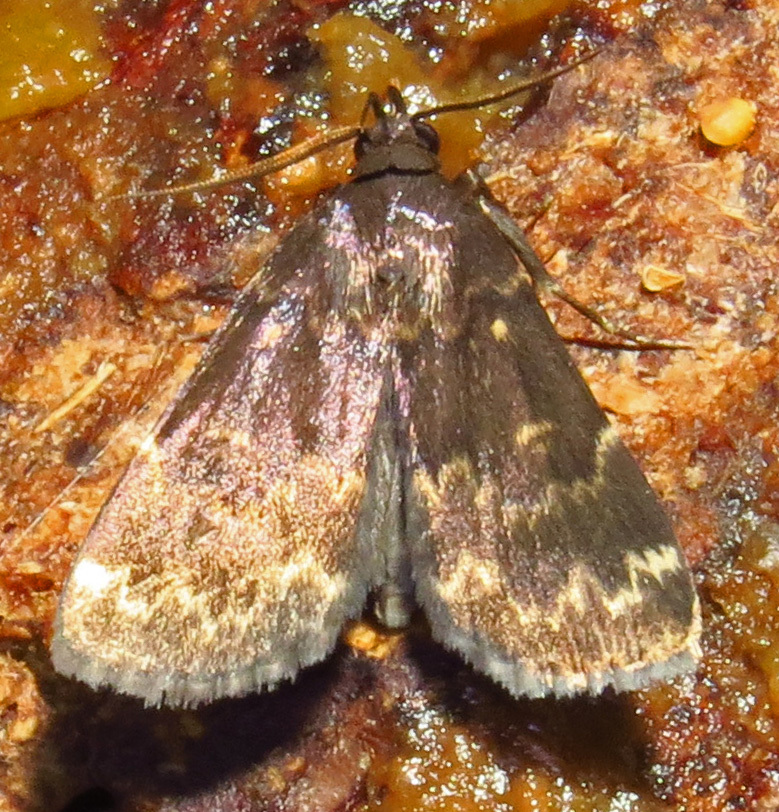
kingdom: Animalia
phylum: Arthropoda
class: Insecta
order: Lepidoptera
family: Erebidae
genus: Idia
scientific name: Idia lubricalis
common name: Twin-striped tabby
